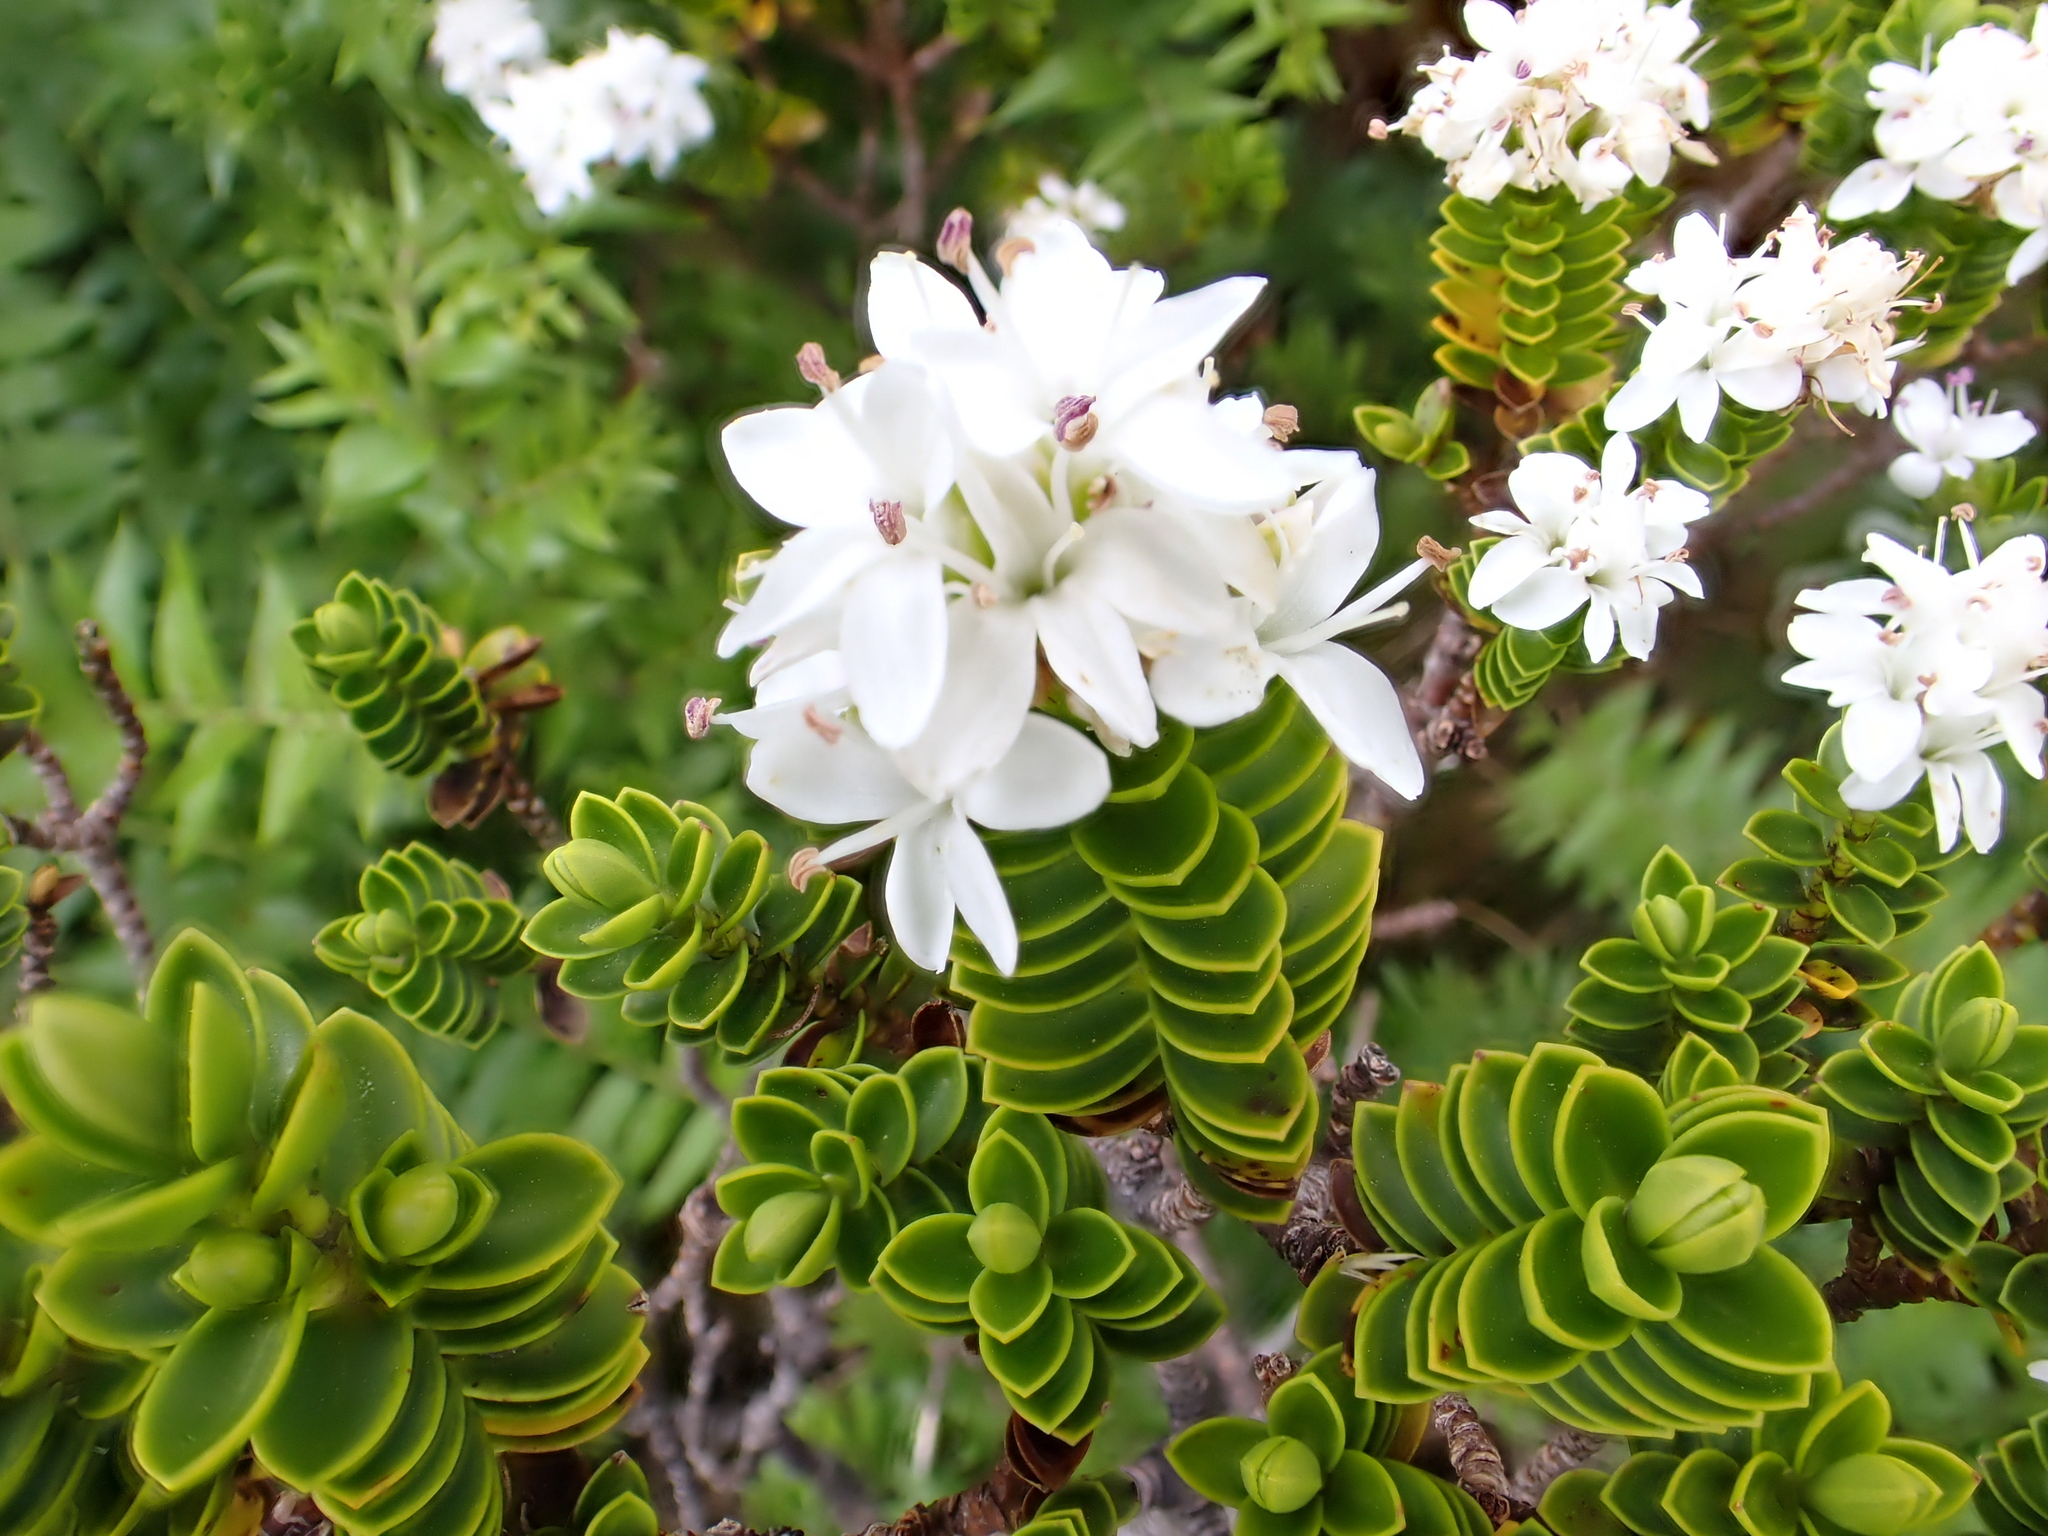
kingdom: Plantae
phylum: Tracheophyta
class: Magnoliopsida
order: Lamiales
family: Plantaginaceae
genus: Veronica
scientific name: Veronica odora
